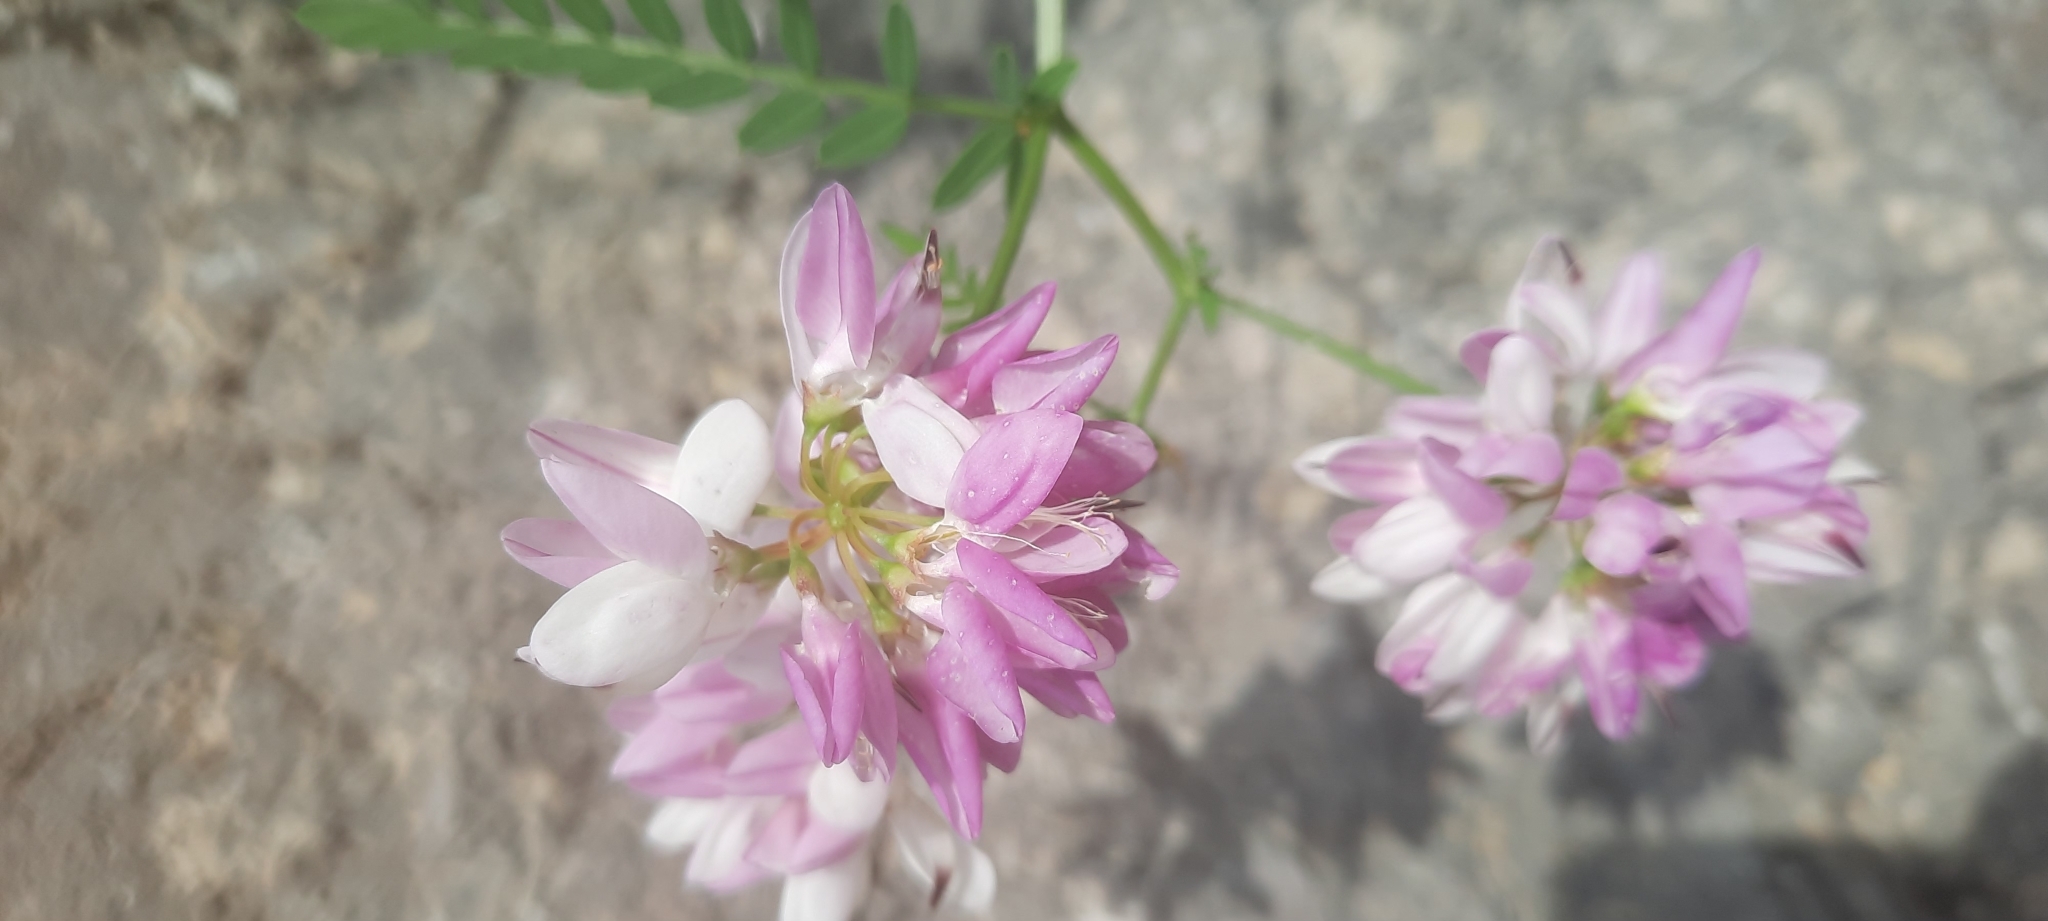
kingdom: Plantae
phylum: Tracheophyta
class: Magnoliopsida
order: Fabales
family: Fabaceae
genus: Coronilla
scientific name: Coronilla varia
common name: Crownvetch
